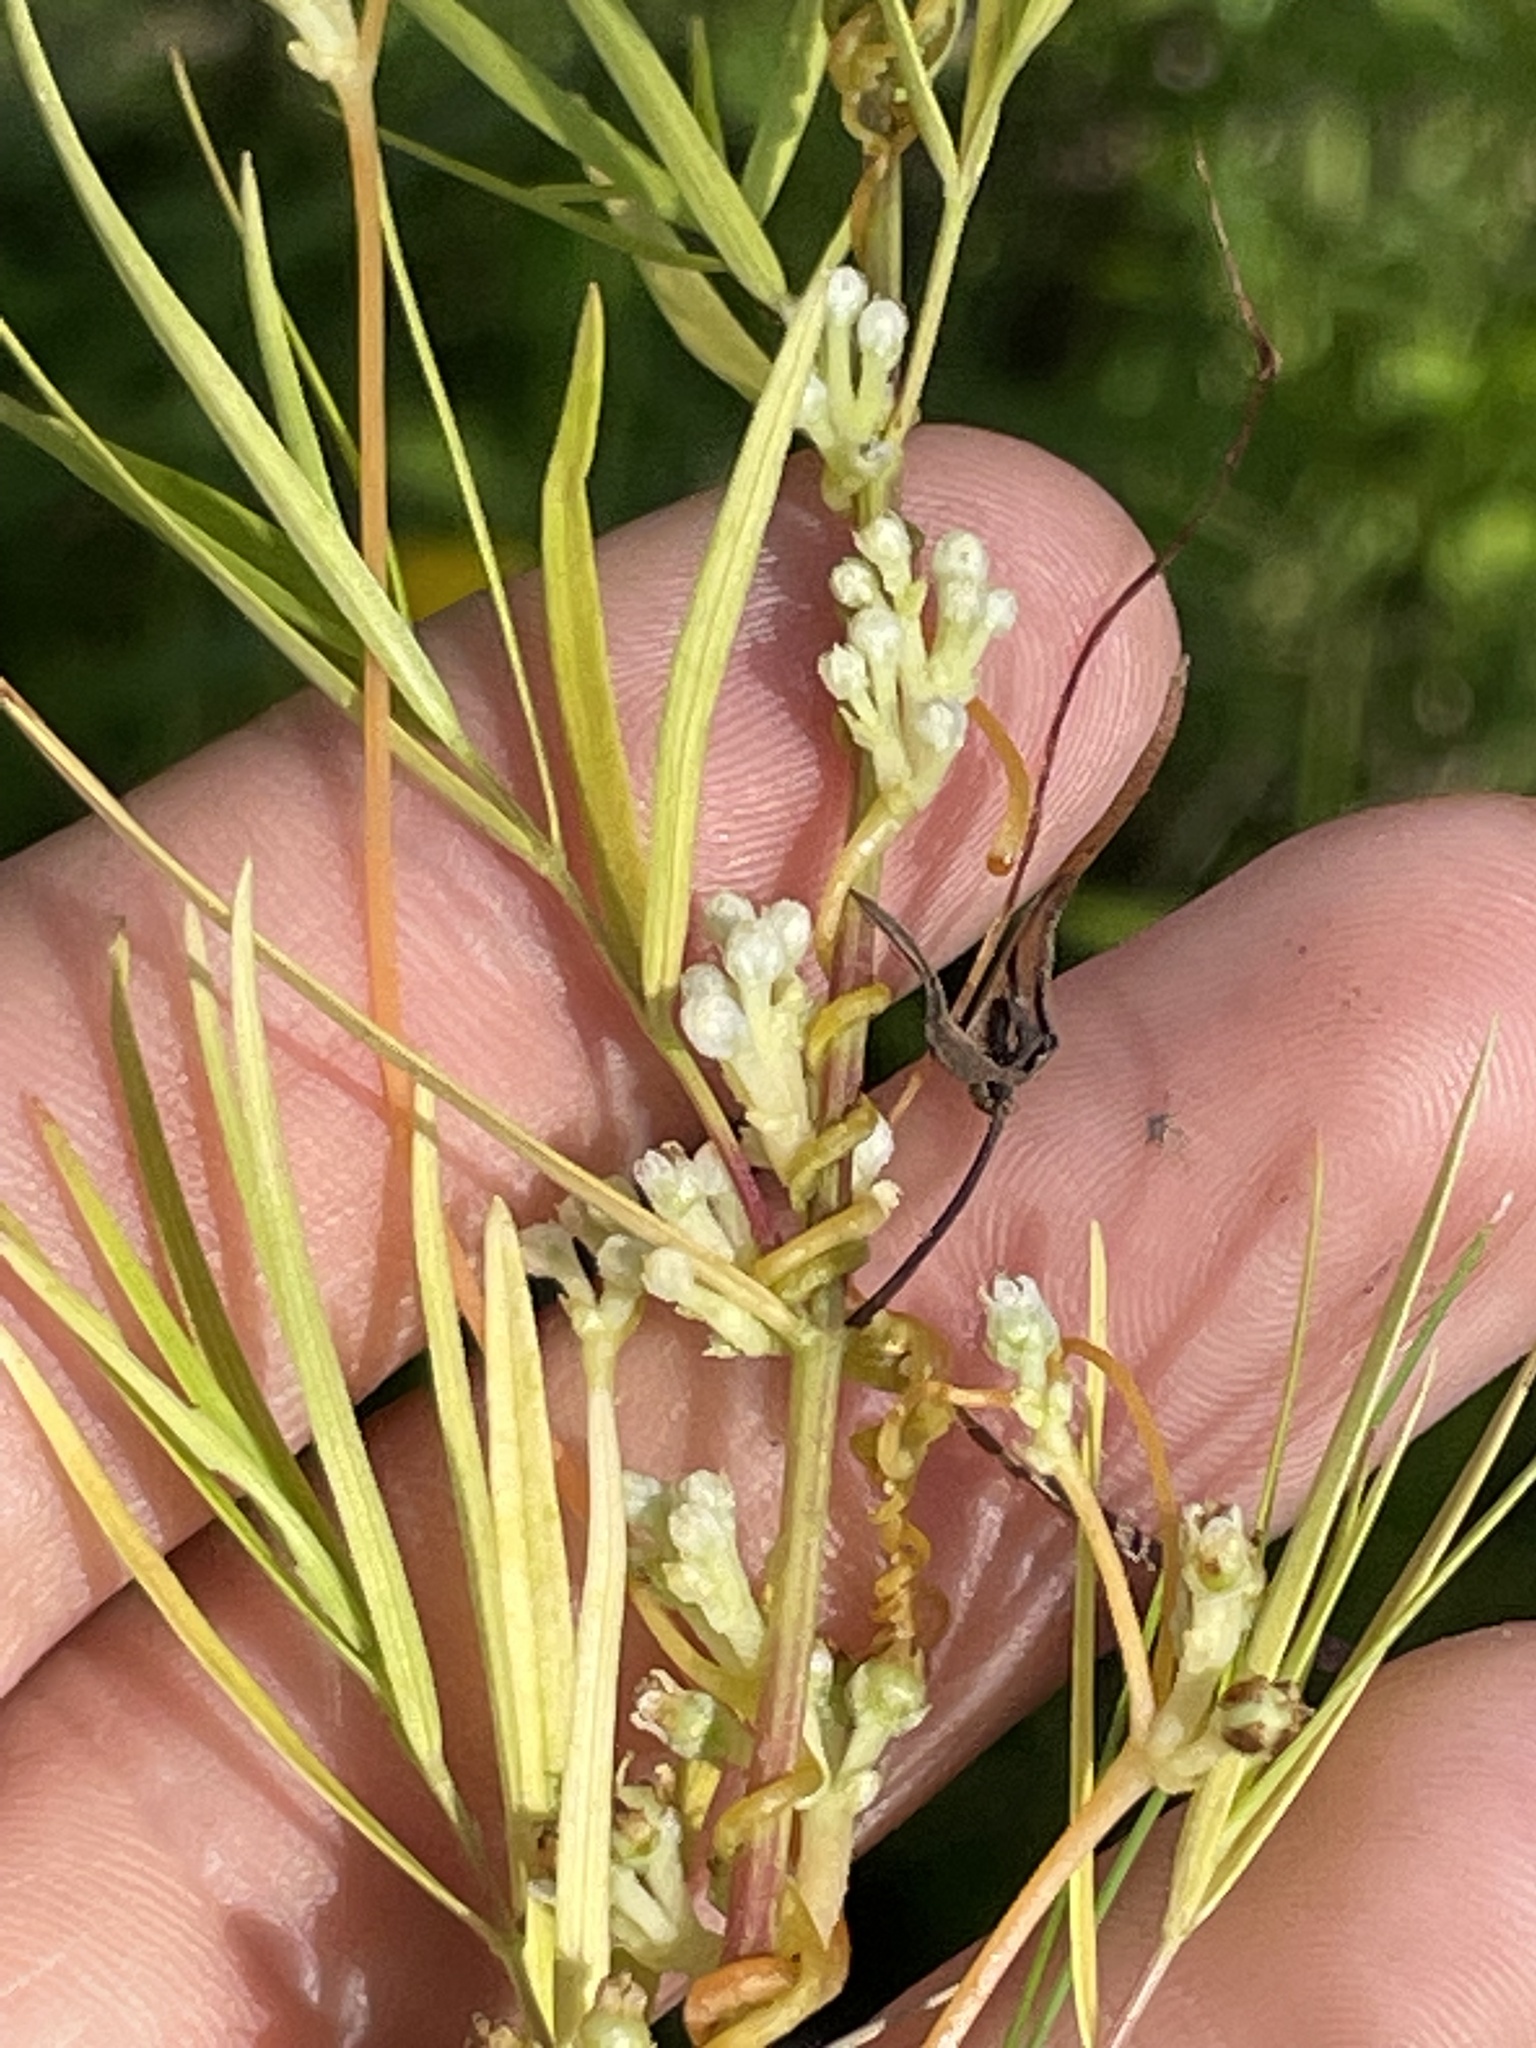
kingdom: Plantae
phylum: Tracheophyta
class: Magnoliopsida
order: Solanales
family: Convolvulaceae
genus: Cuscuta
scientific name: Cuscuta indecora
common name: Large-seed dodder
